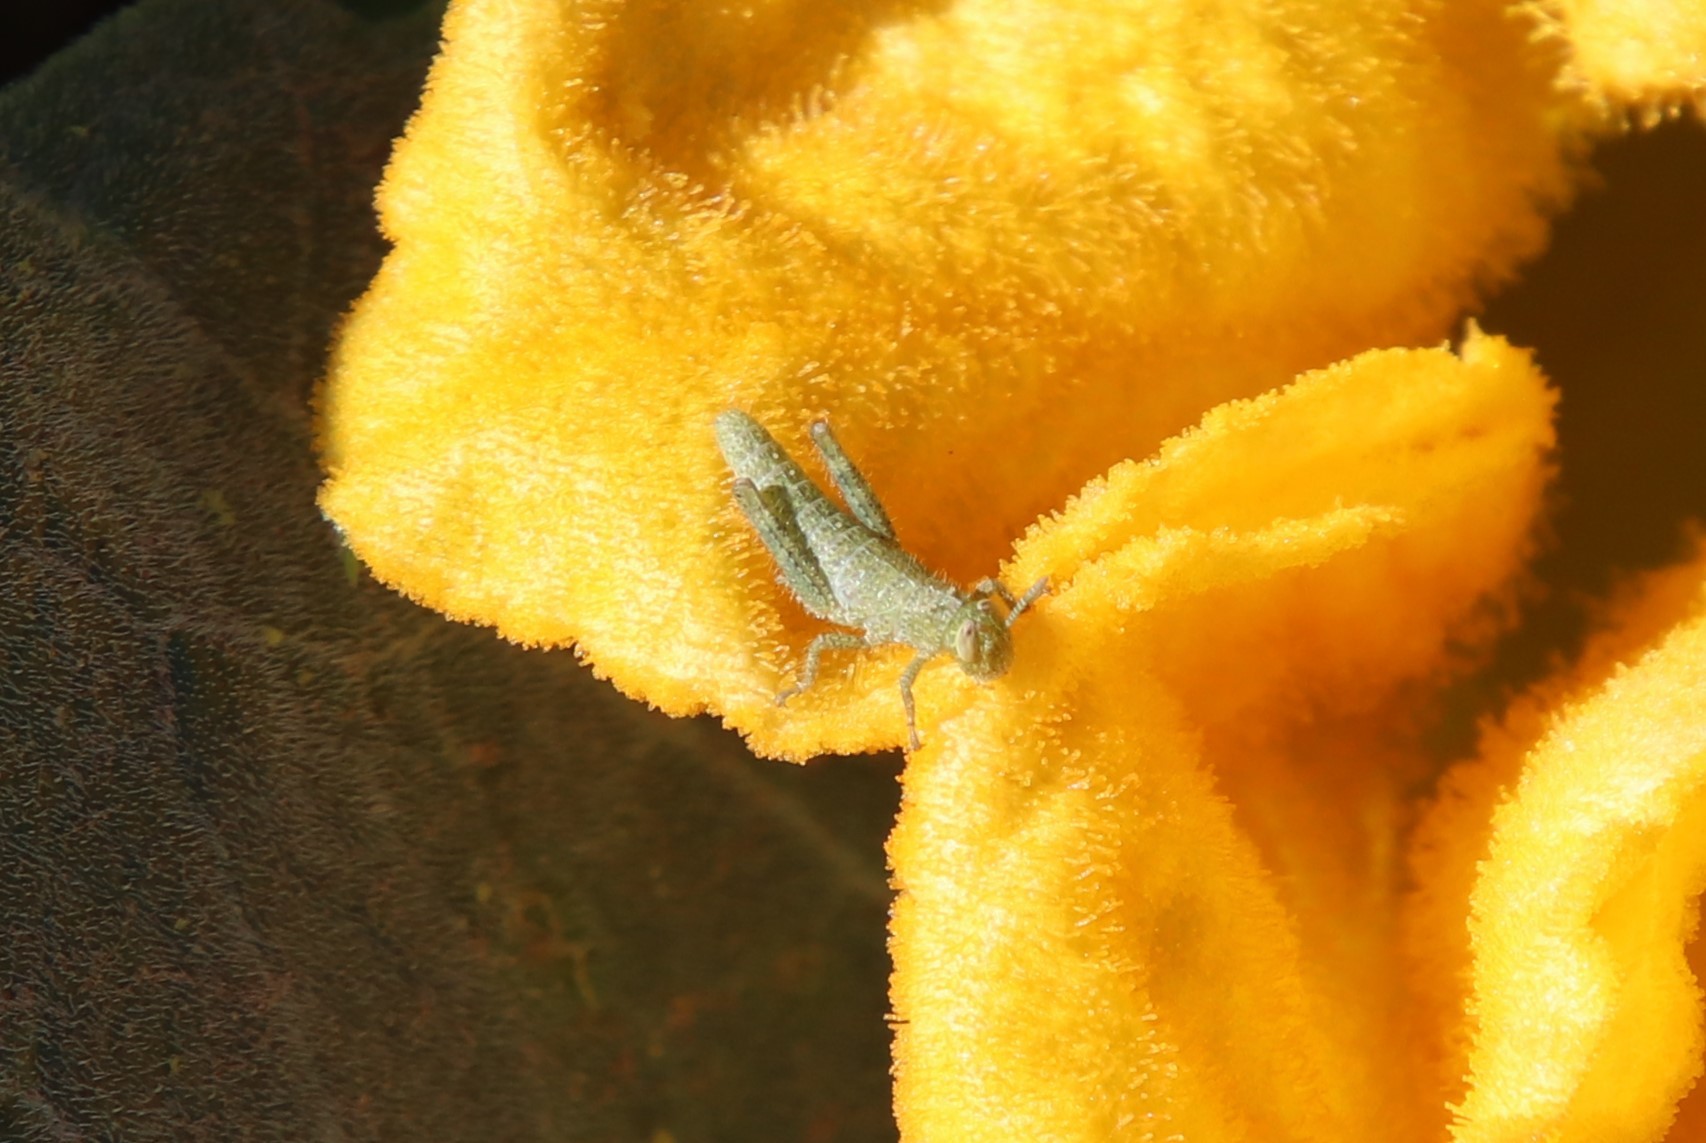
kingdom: Animalia
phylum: Arthropoda
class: Insecta
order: Orthoptera
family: Acrididae
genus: Schistocerca
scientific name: Schistocerca nitens
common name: Vagrant grasshopper
